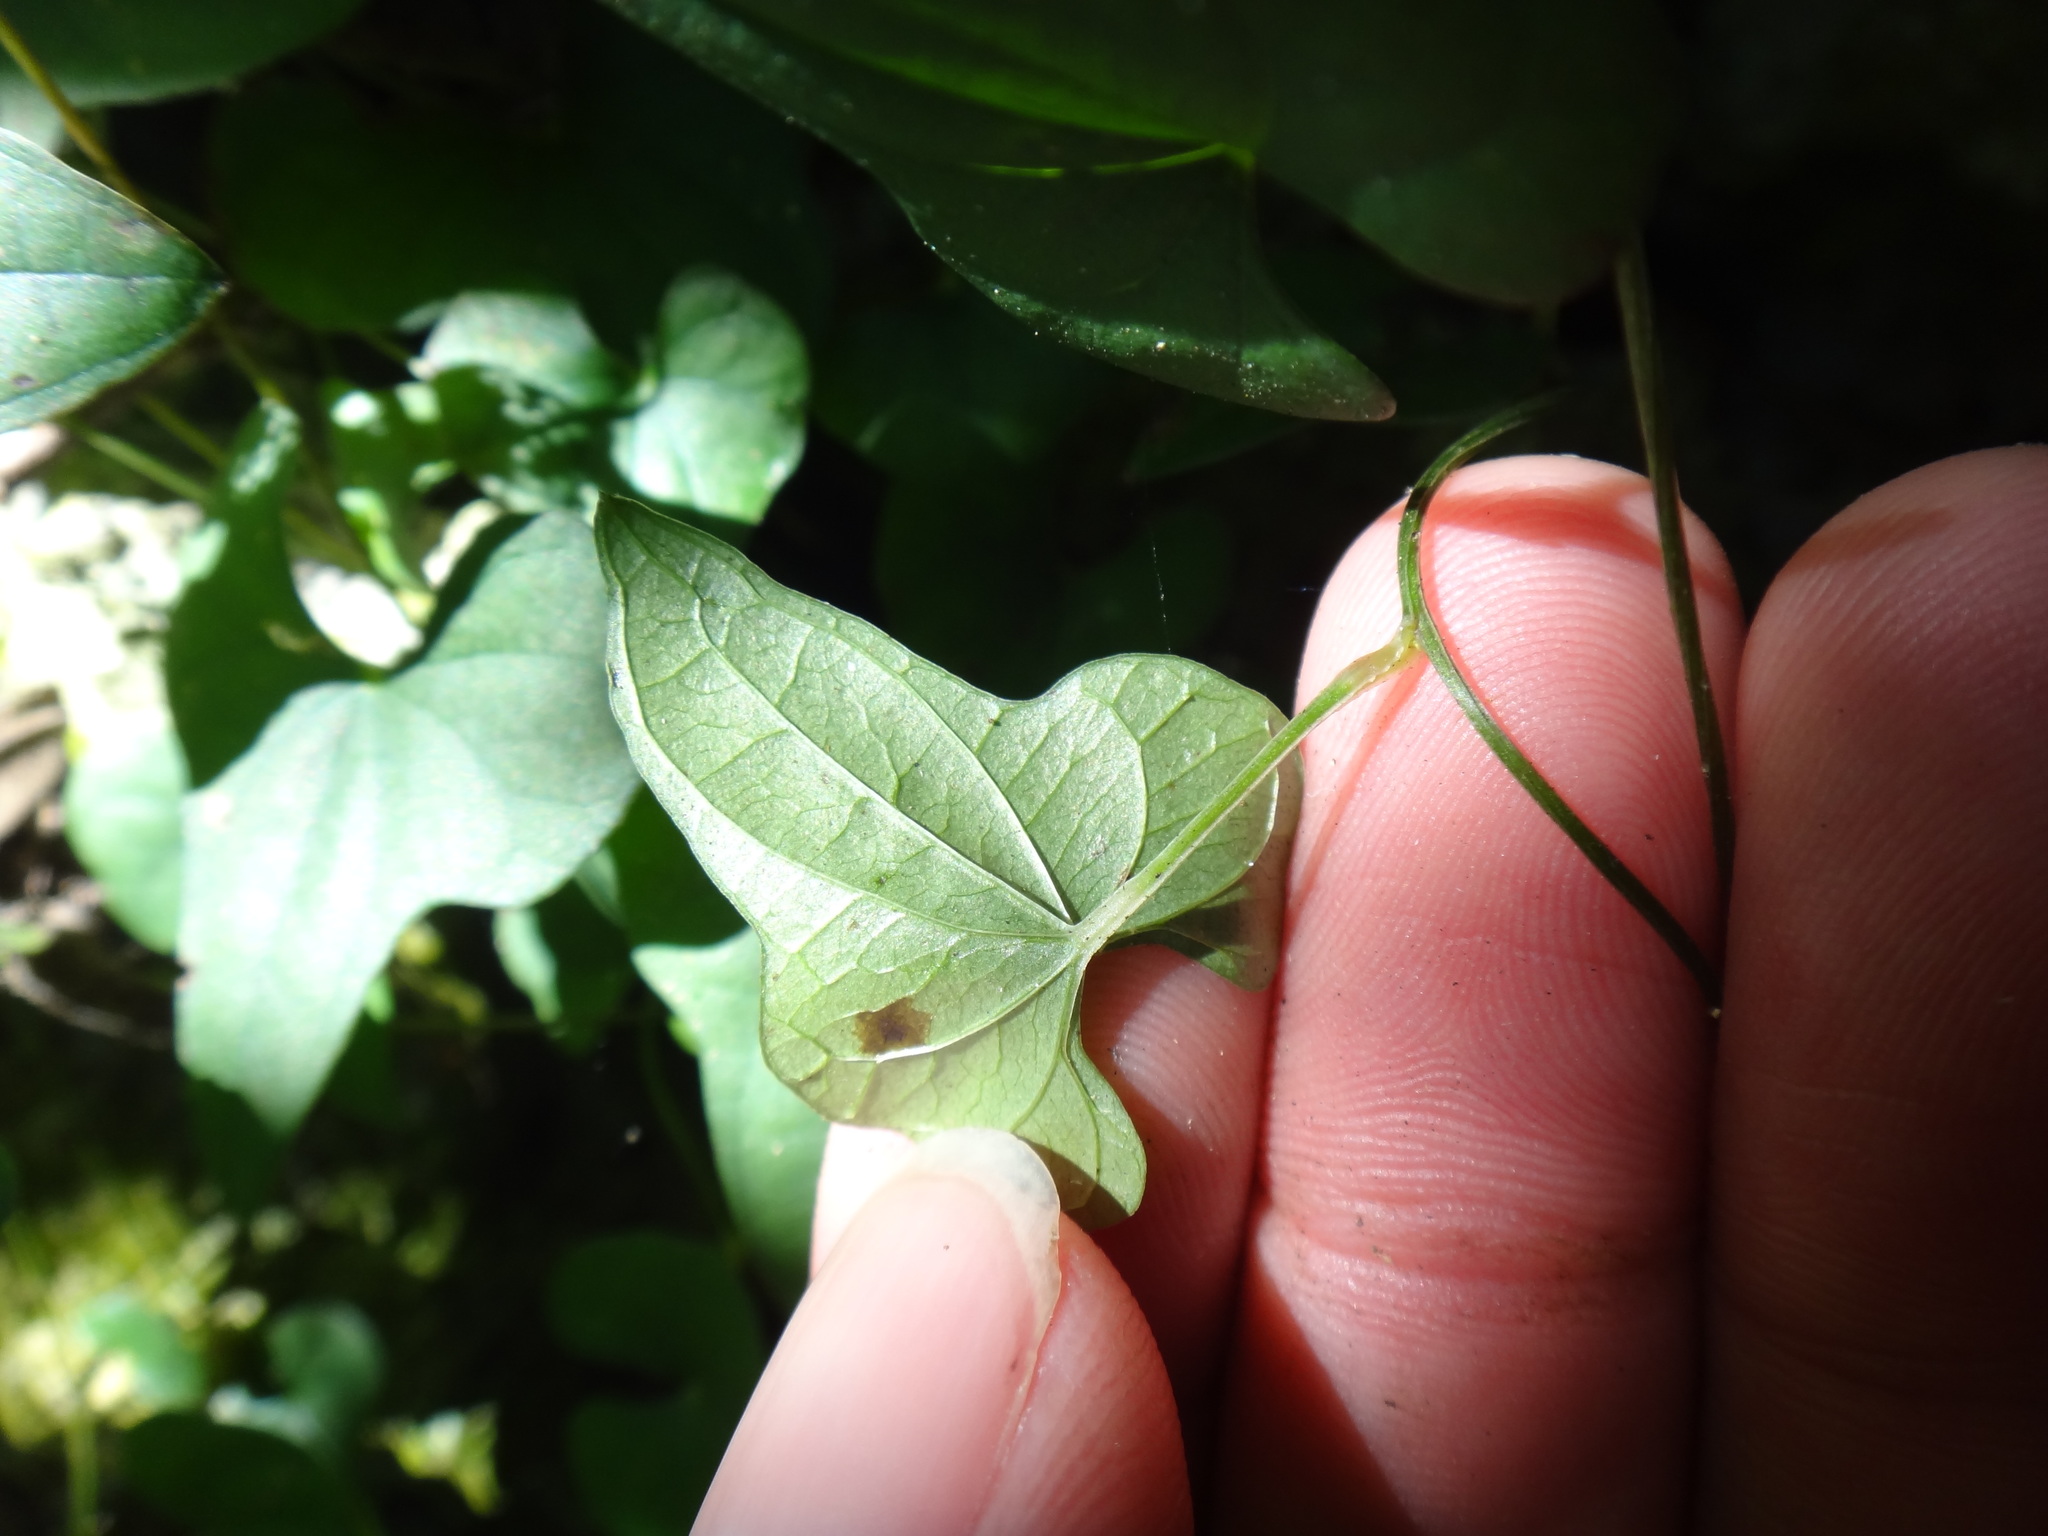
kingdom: Plantae
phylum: Tracheophyta
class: Liliopsida
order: Dioscoreales
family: Dioscoreaceae
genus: Dioscorea
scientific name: Dioscorea polystachya
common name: Chinese yam
